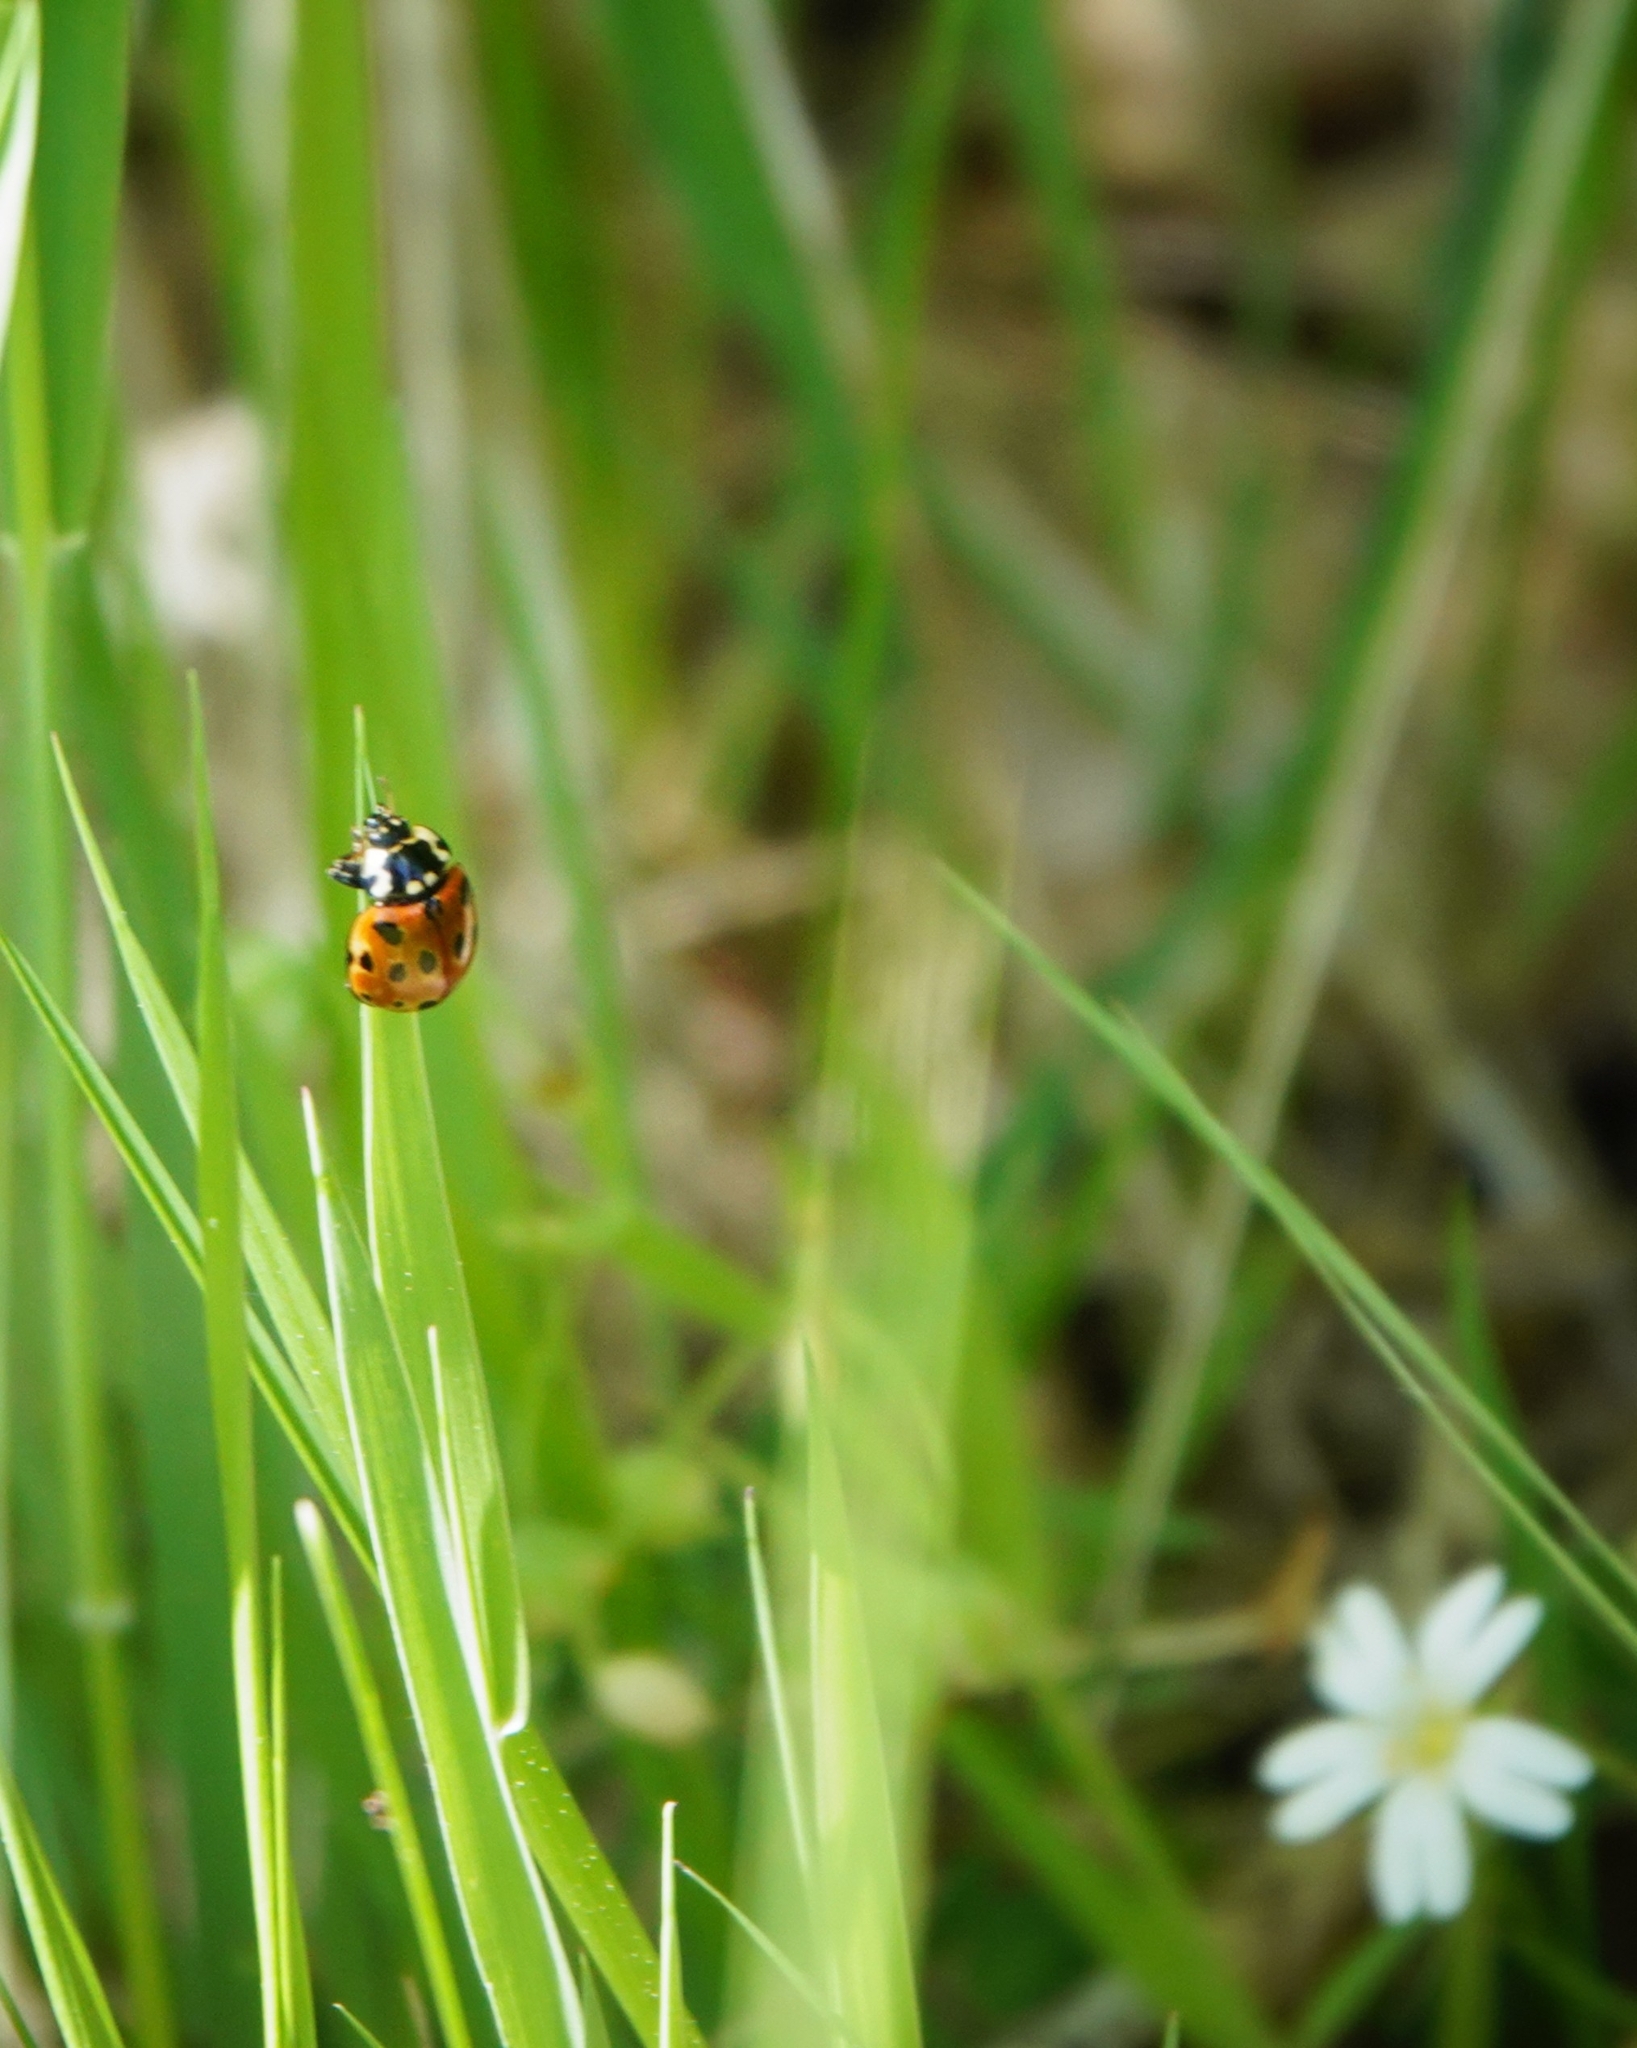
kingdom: Animalia
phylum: Arthropoda
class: Insecta
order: Coleoptera
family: Coccinellidae
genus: Anatis
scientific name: Anatis ocellata
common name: Eyed ladybird
